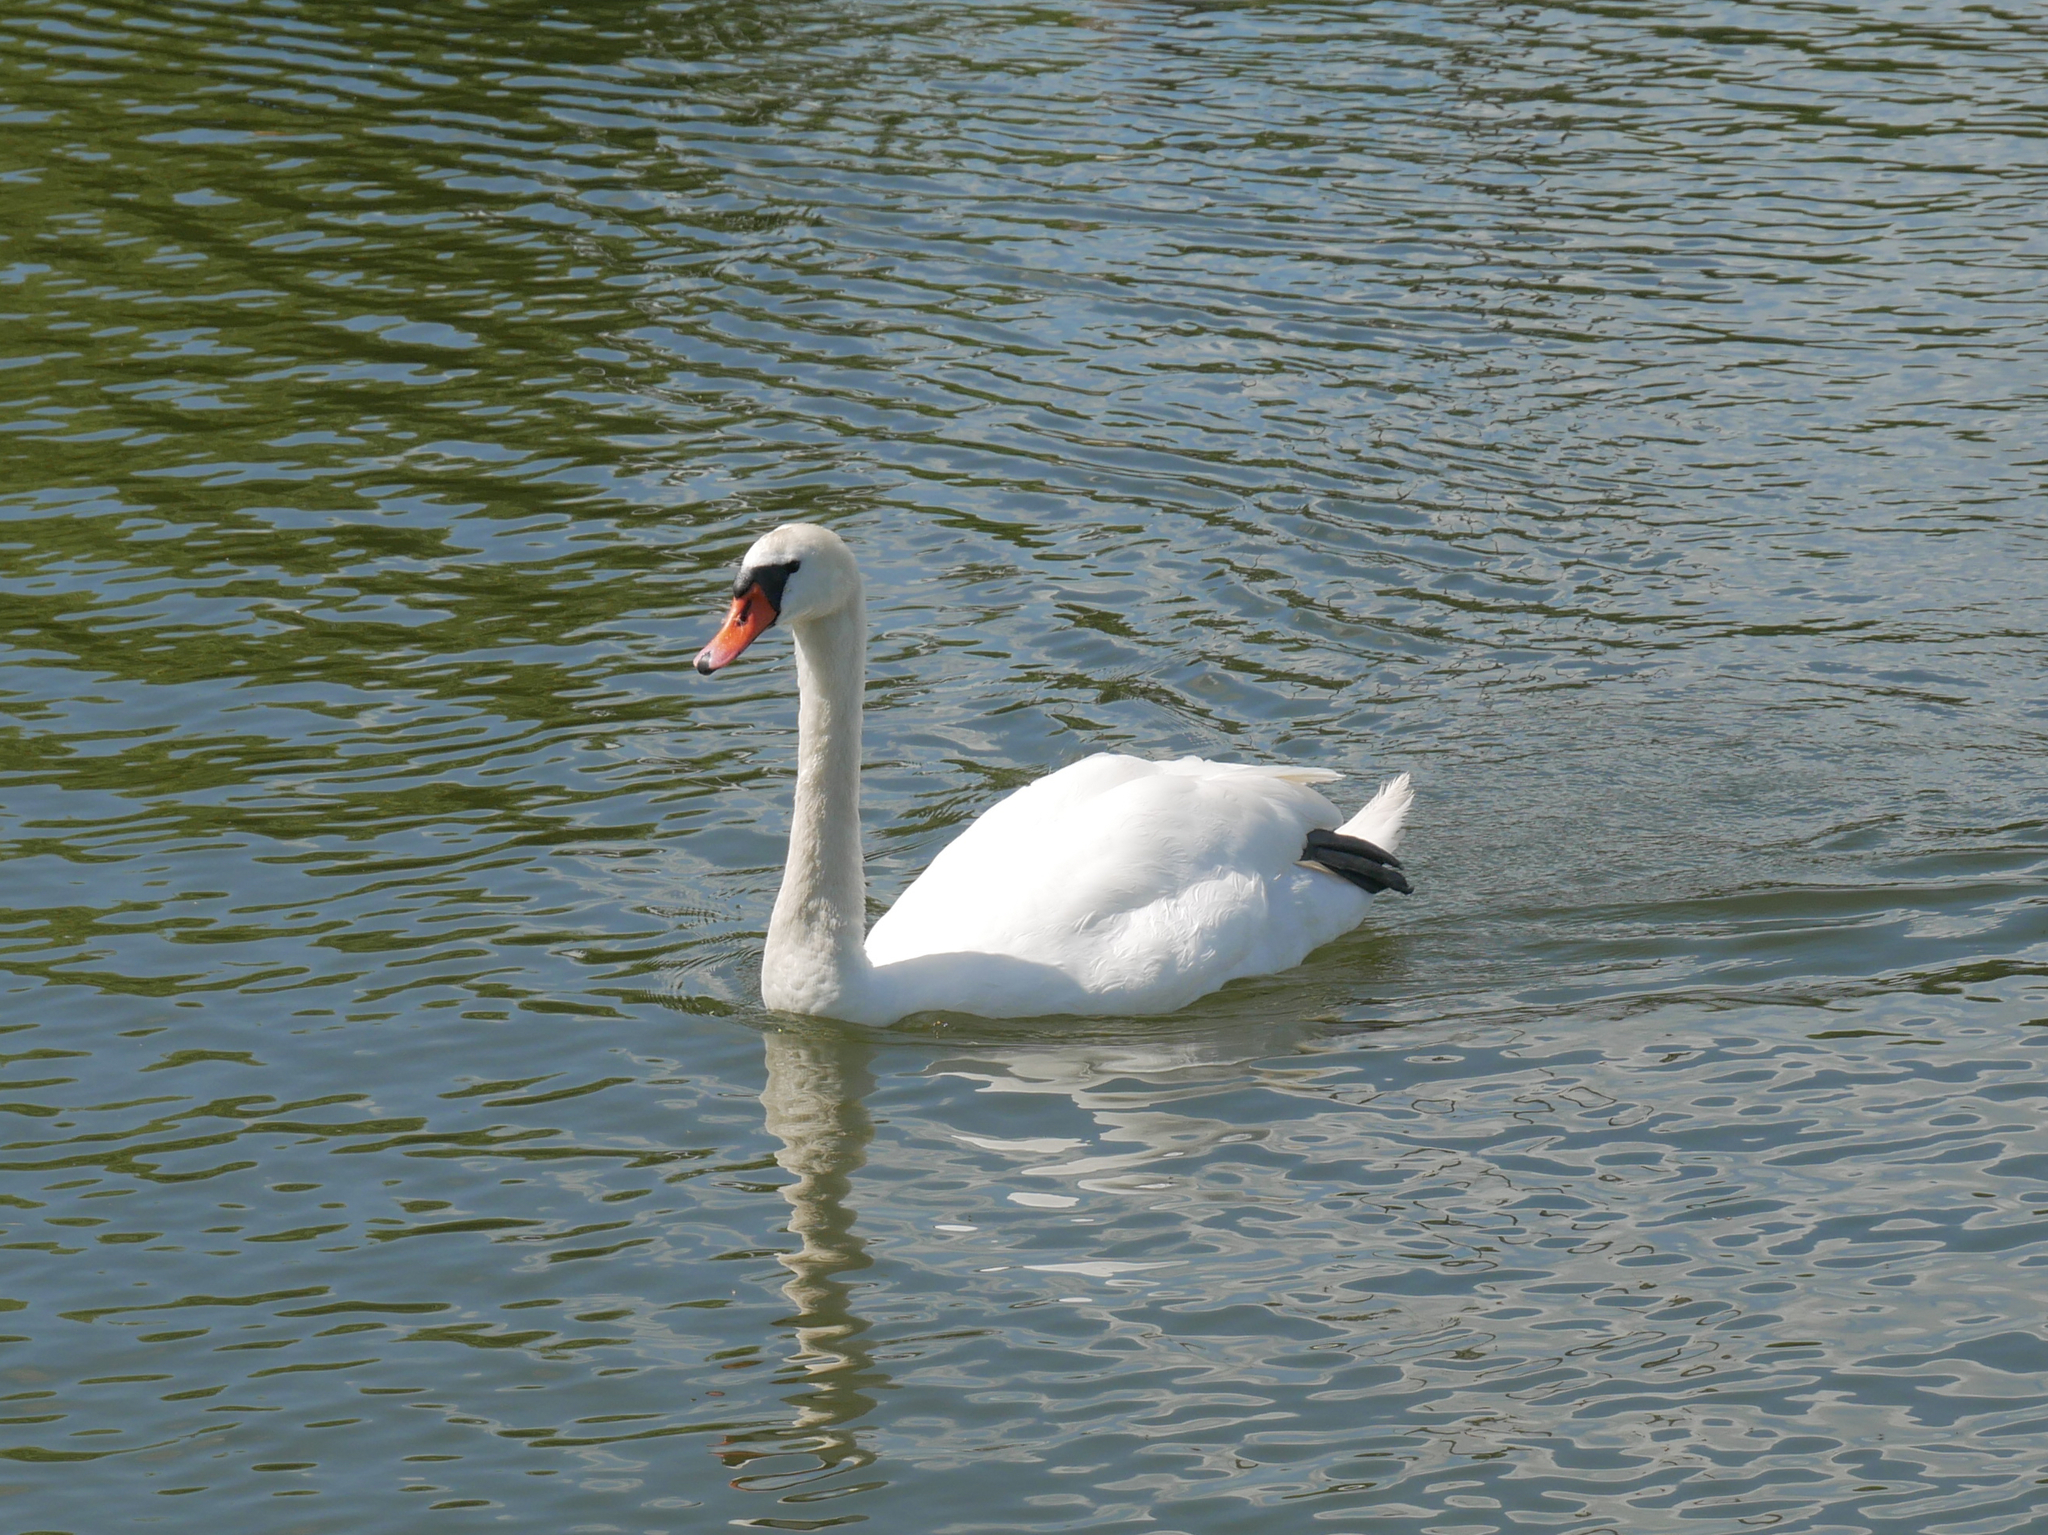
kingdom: Animalia
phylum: Chordata
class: Aves
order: Anseriformes
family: Anatidae
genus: Cygnus
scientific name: Cygnus olor
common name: Mute swan
